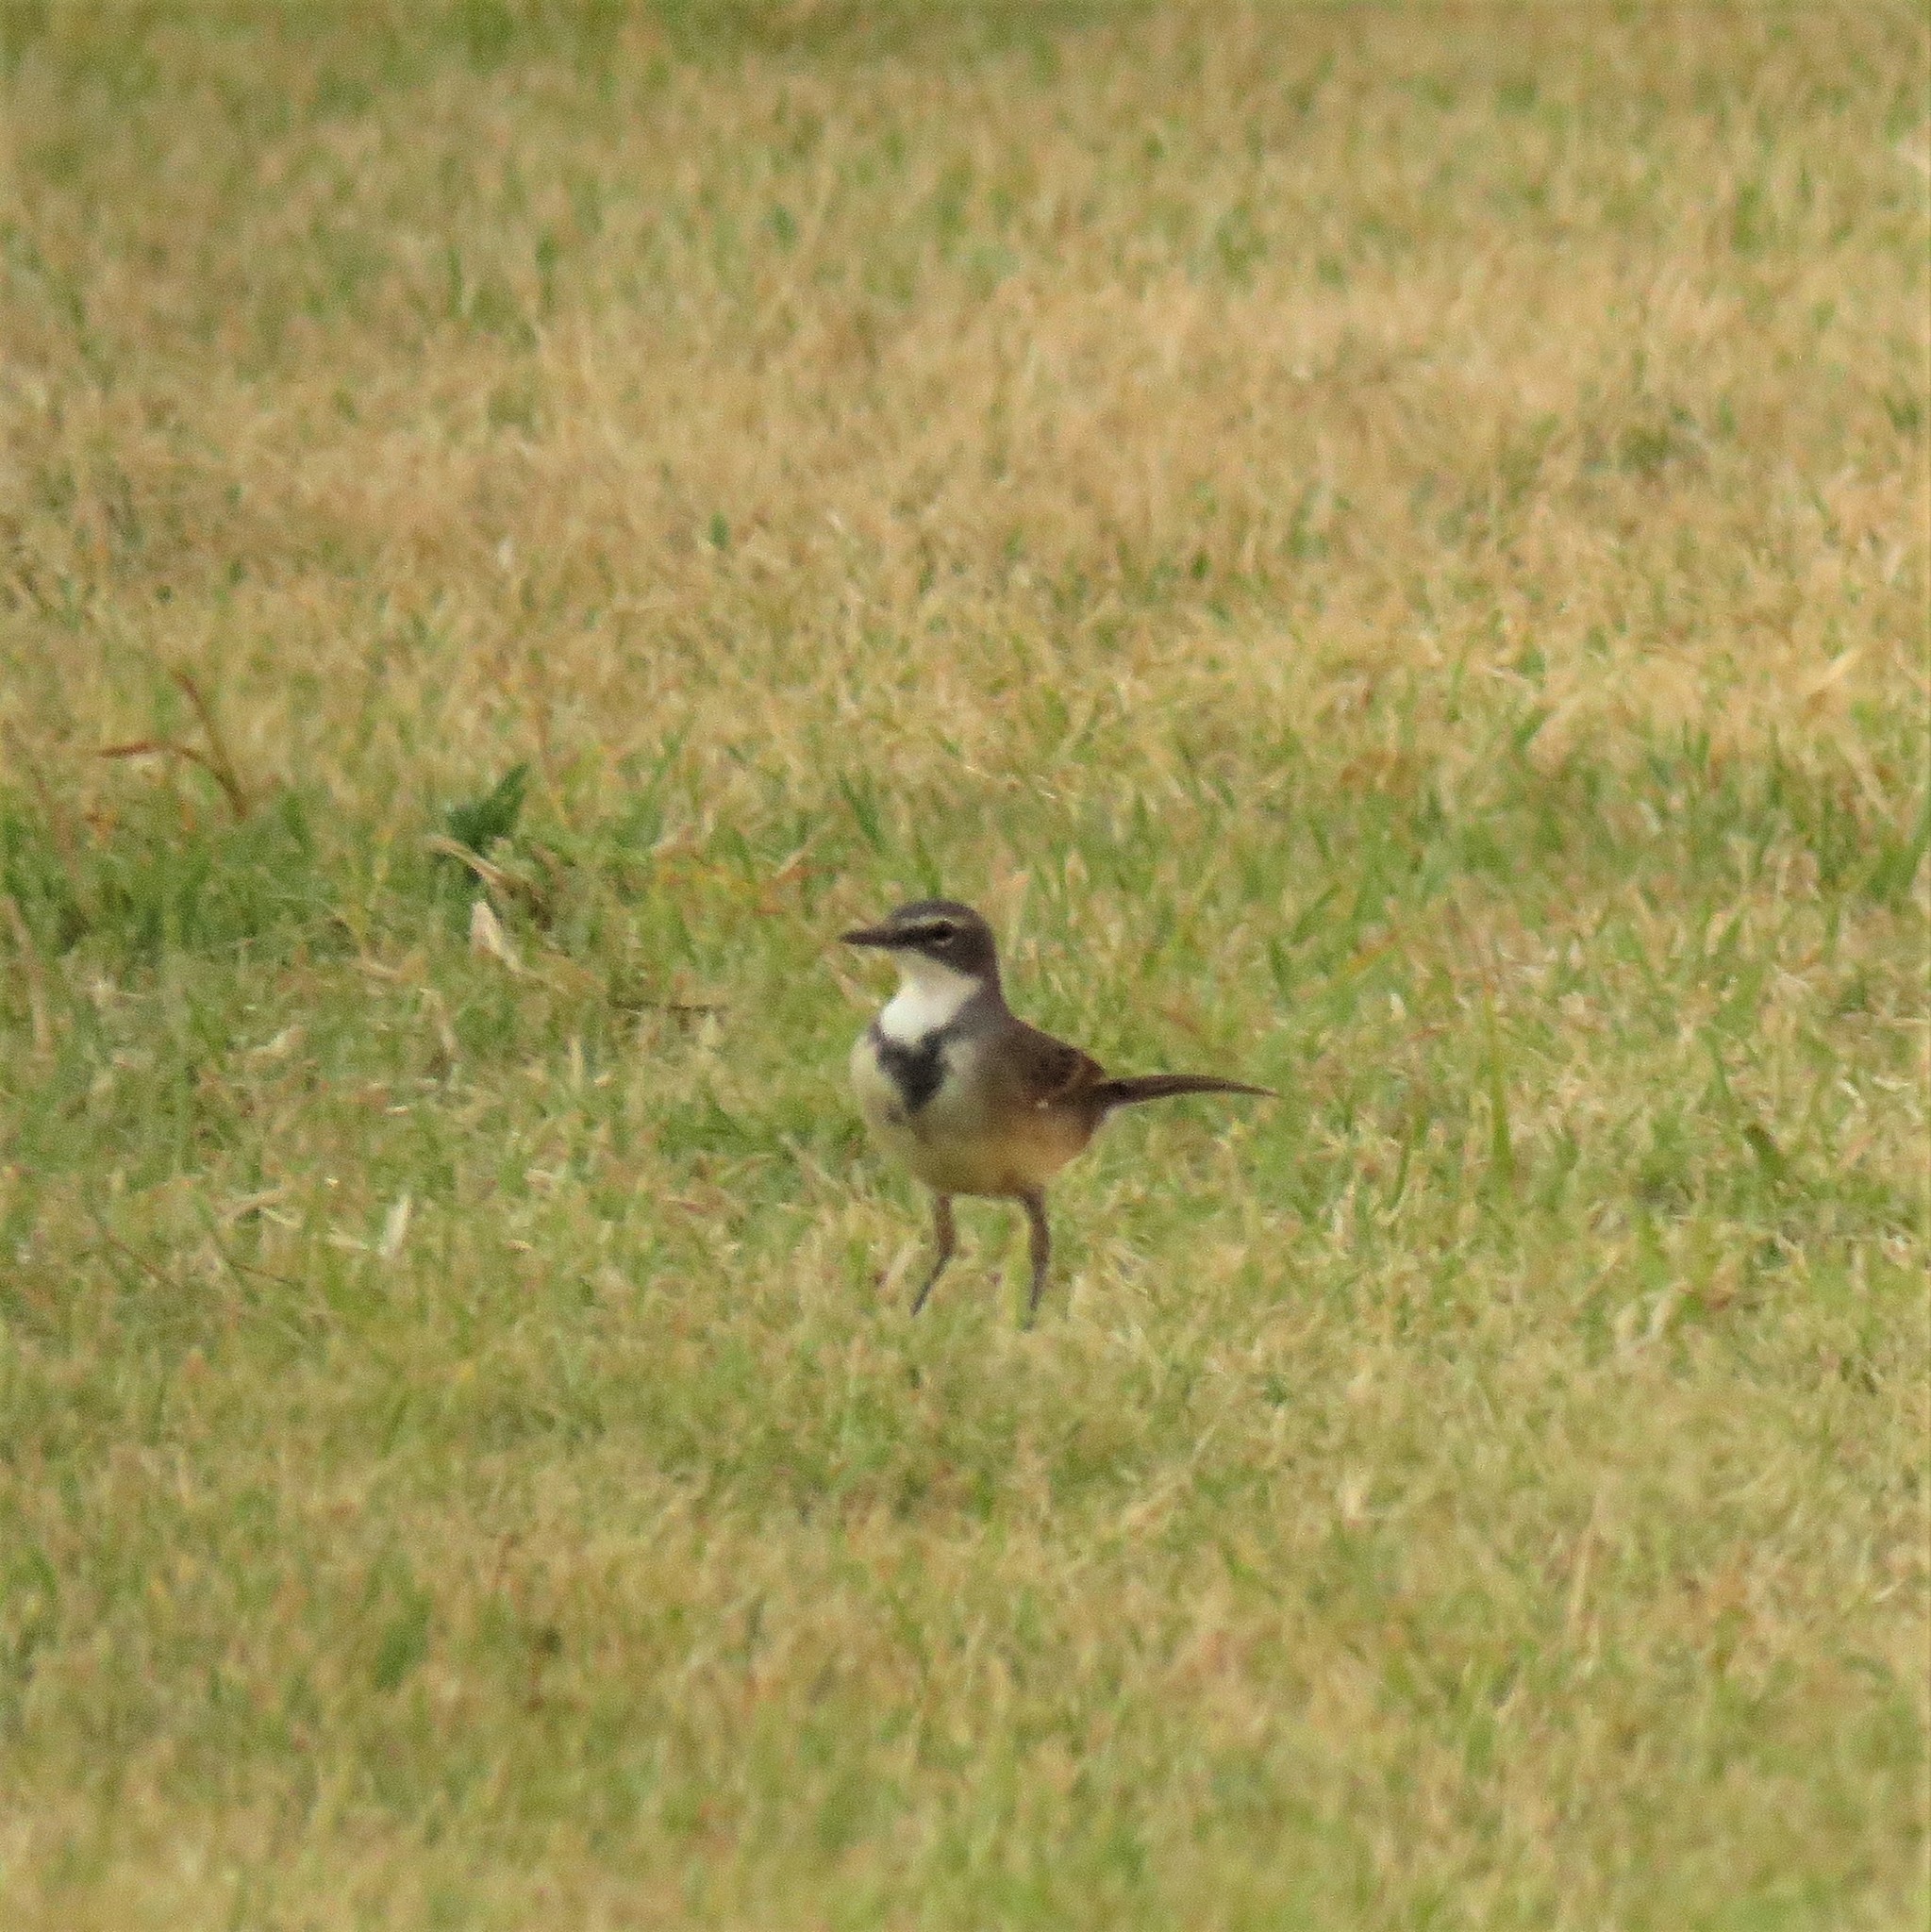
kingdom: Animalia
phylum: Chordata
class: Aves
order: Passeriformes
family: Motacillidae
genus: Motacilla
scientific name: Motacilla capensis
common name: Cape wagtail
